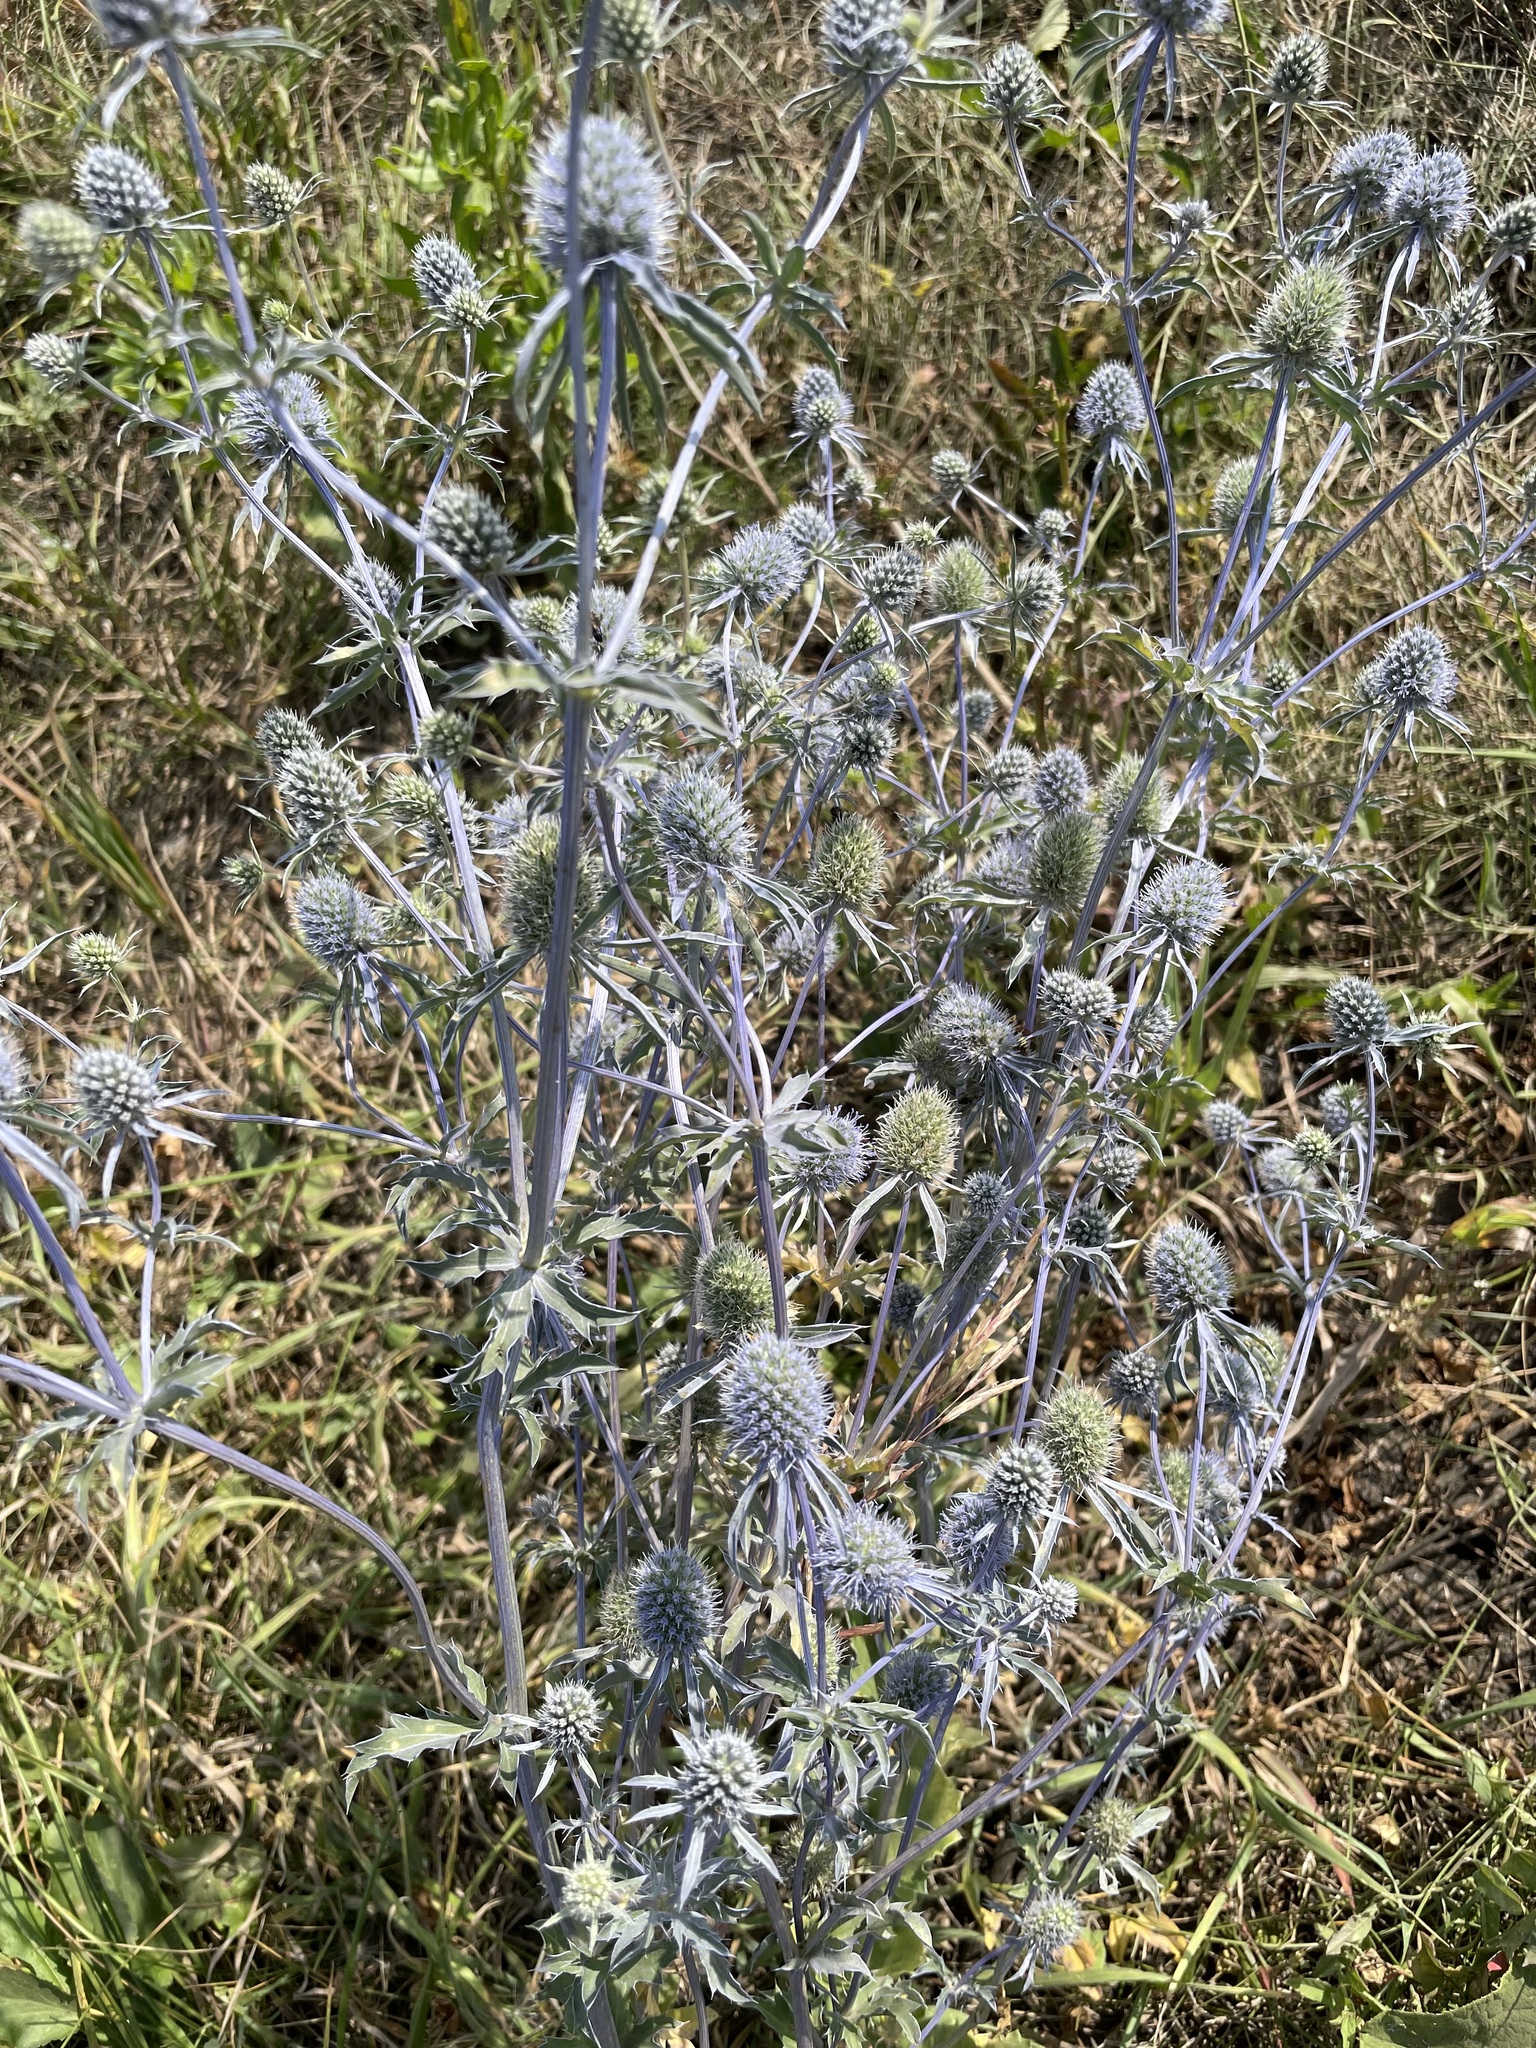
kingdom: Plantae
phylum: Tracheophyta
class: Magnoliopsida
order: Apiales
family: Apiaceae
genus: Eryngium
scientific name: Eryngium planum
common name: Blue eryngo
